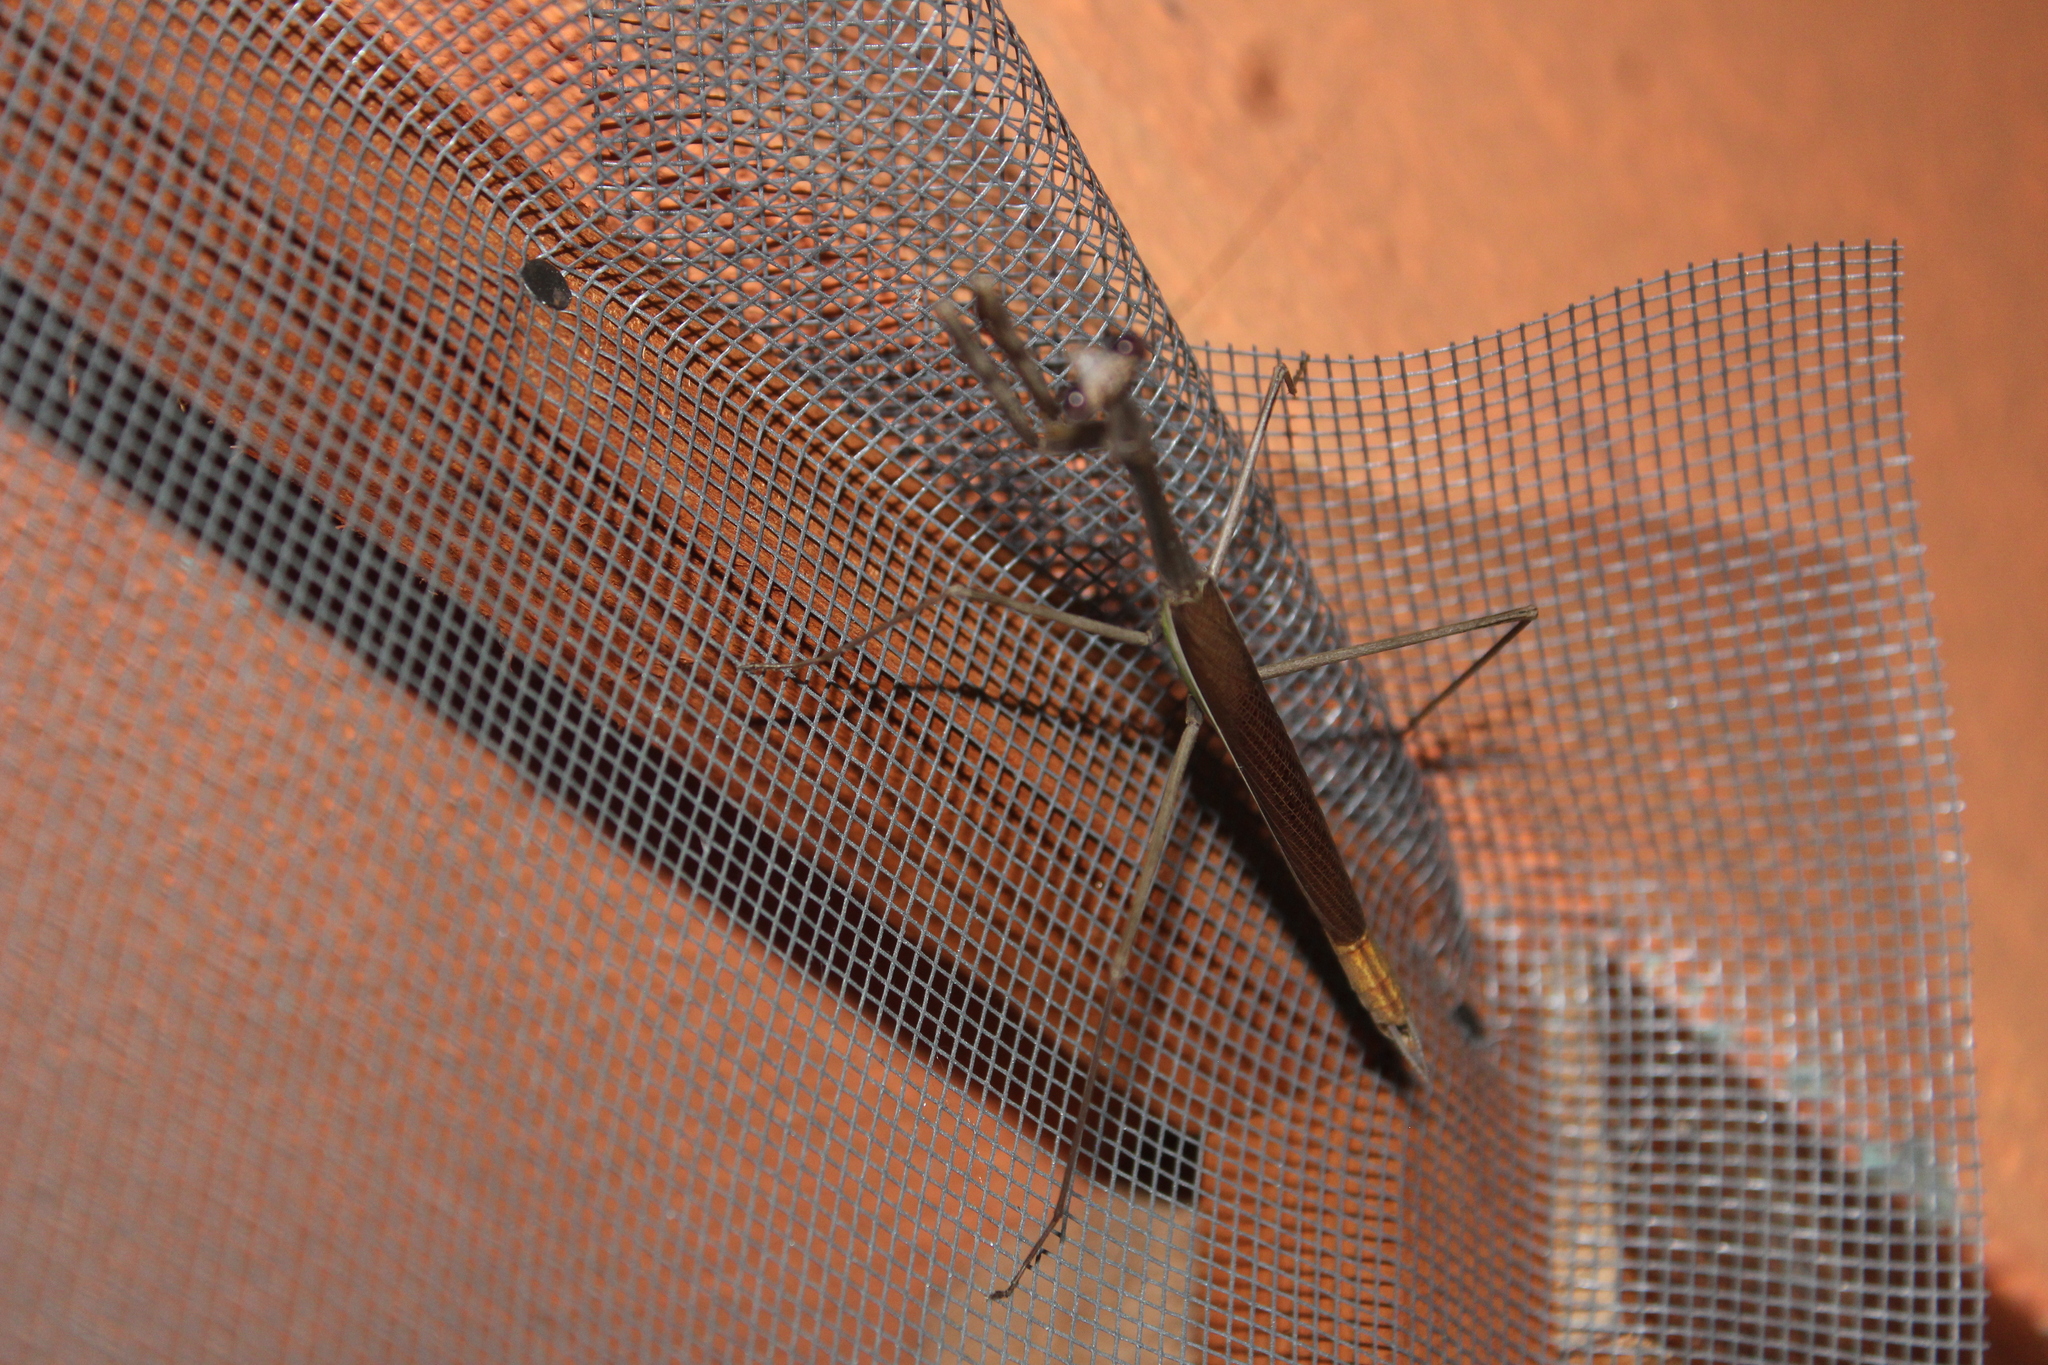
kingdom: Animalia
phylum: Arthropoda
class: Insecta
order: Mantodea
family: Mantidae
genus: Phasmomantis
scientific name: Phasmomantis sumichrasti
